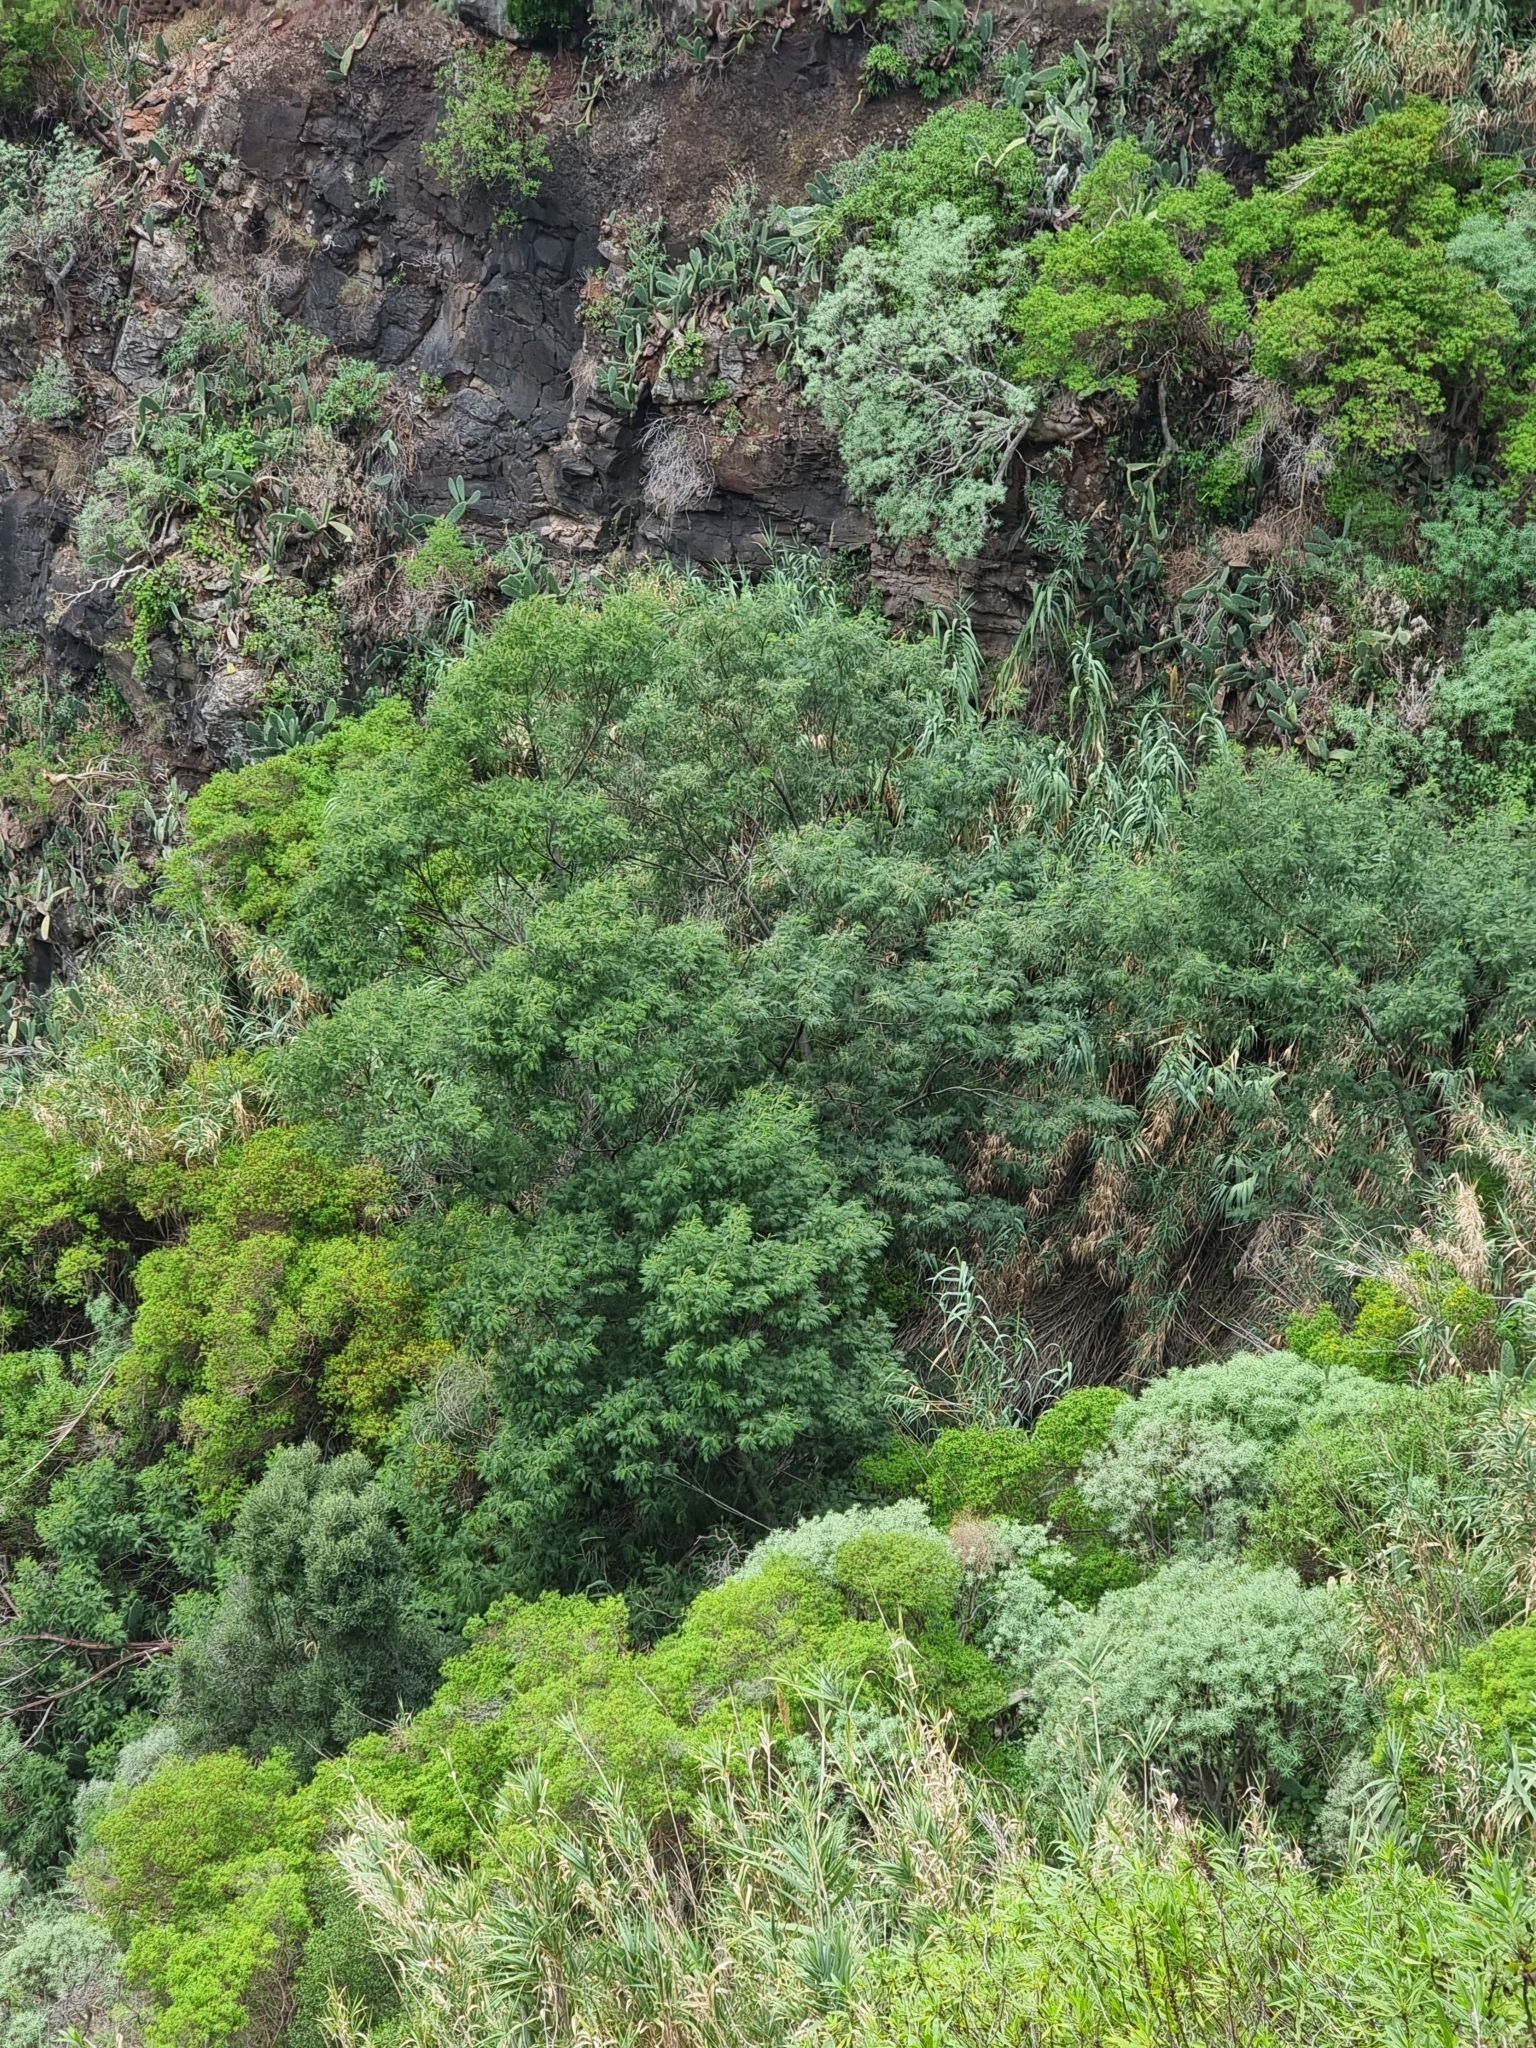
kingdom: Plantae
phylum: Tracheophyta
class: Magnoliopsida
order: Fabales
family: Fabaceae
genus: Acacia
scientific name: Acacia mearnsii
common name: Black wattle
